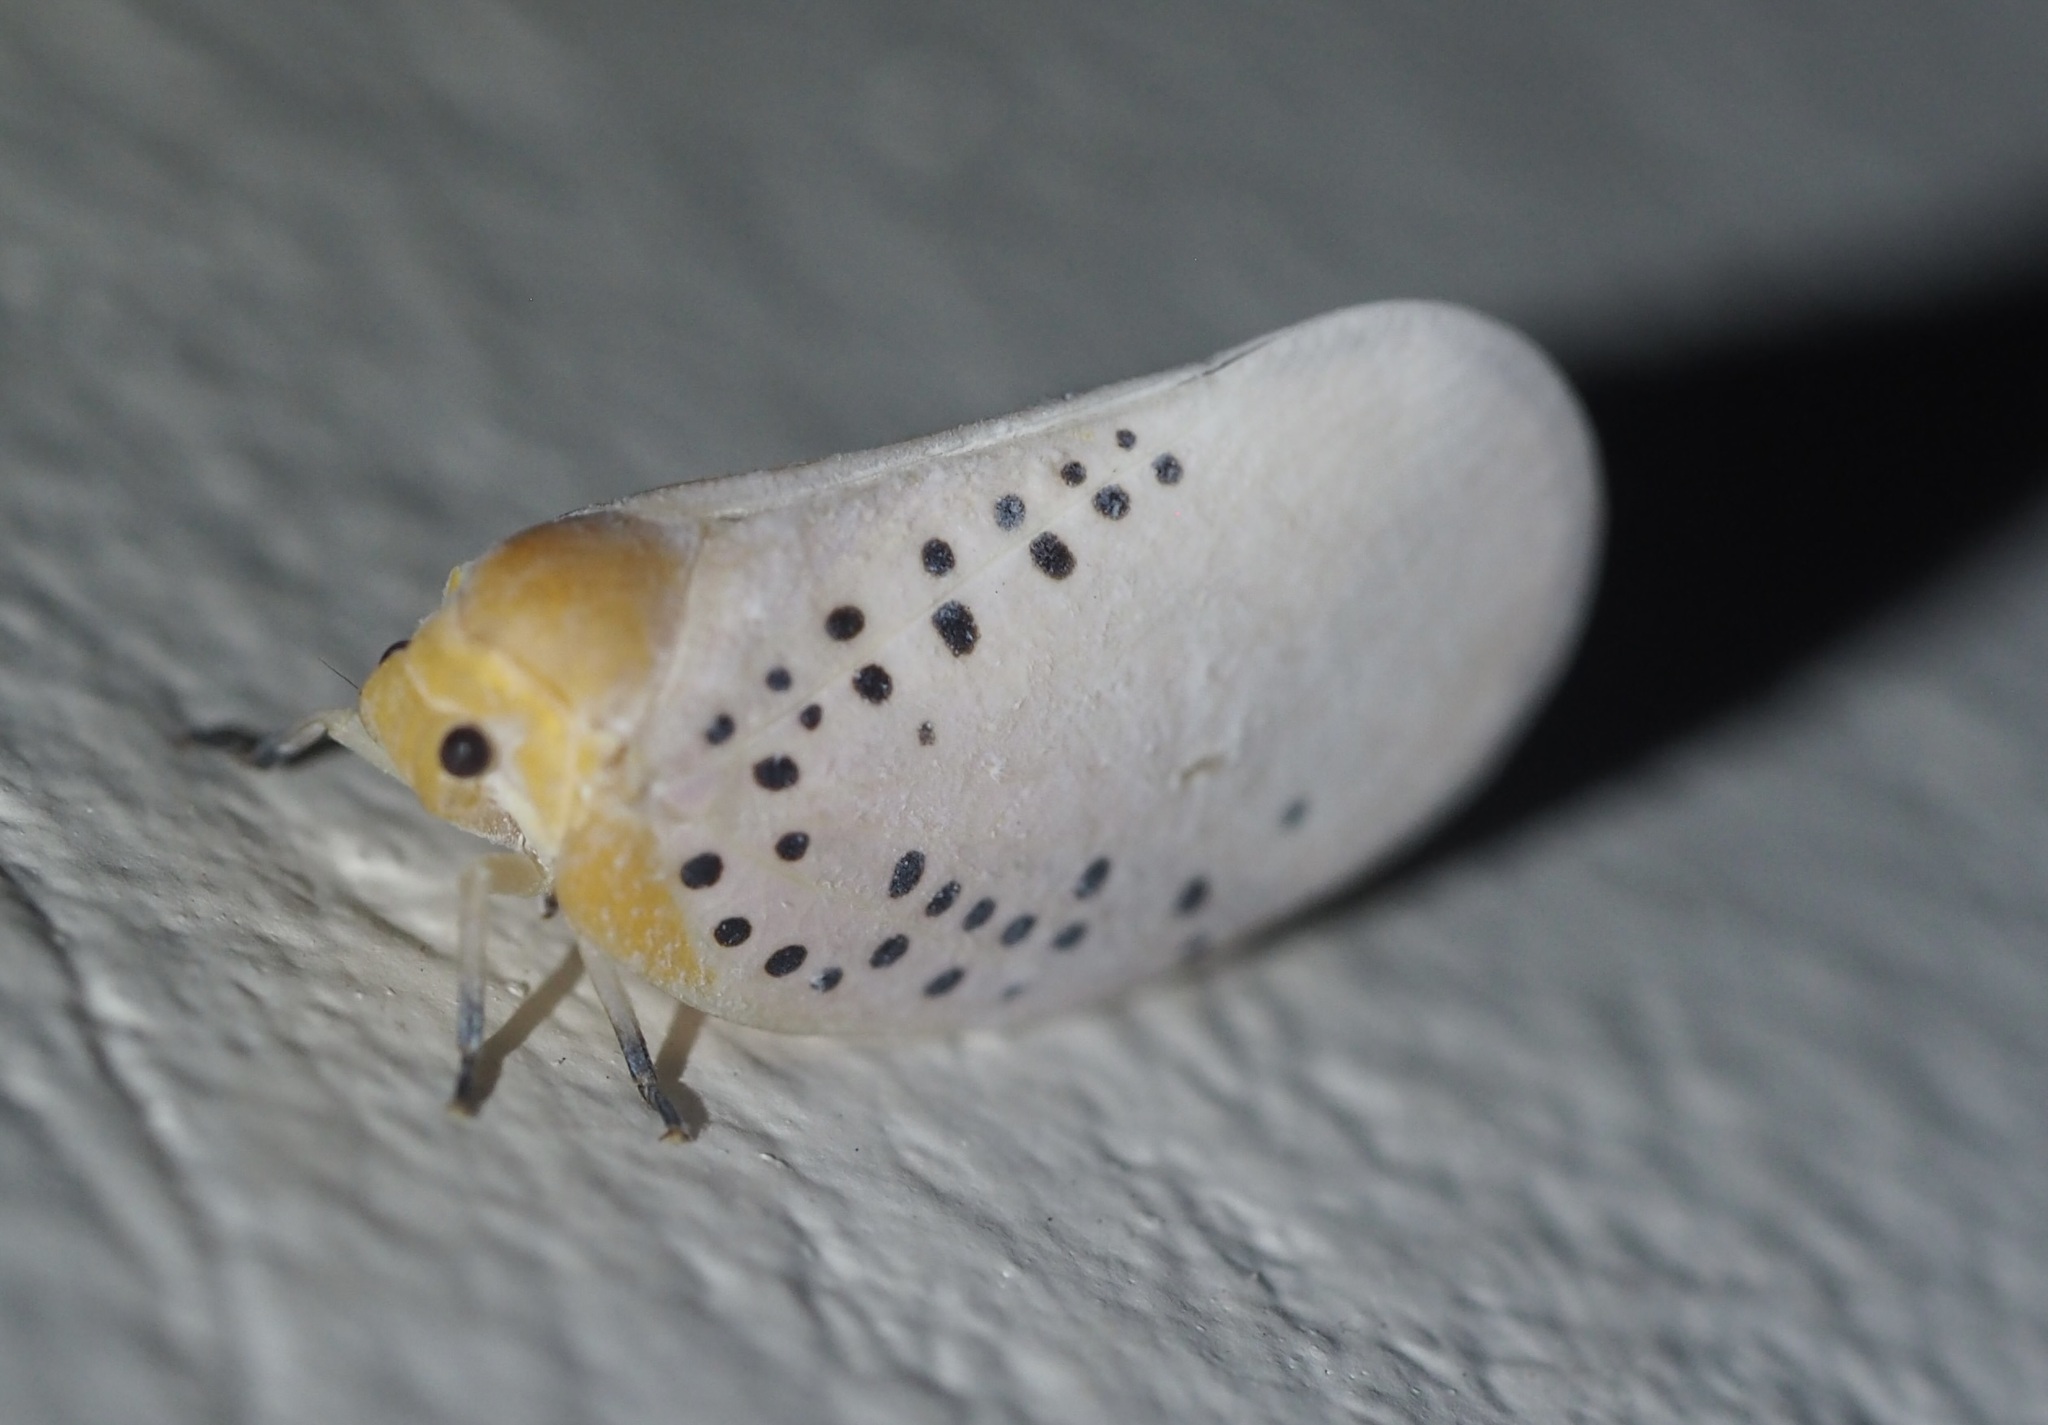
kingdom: Animalia
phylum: Arthropoda
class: Insecta
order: Hemiptera
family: Flatidae
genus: Poekilloptera
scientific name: Poekilloptera phalaenoides
